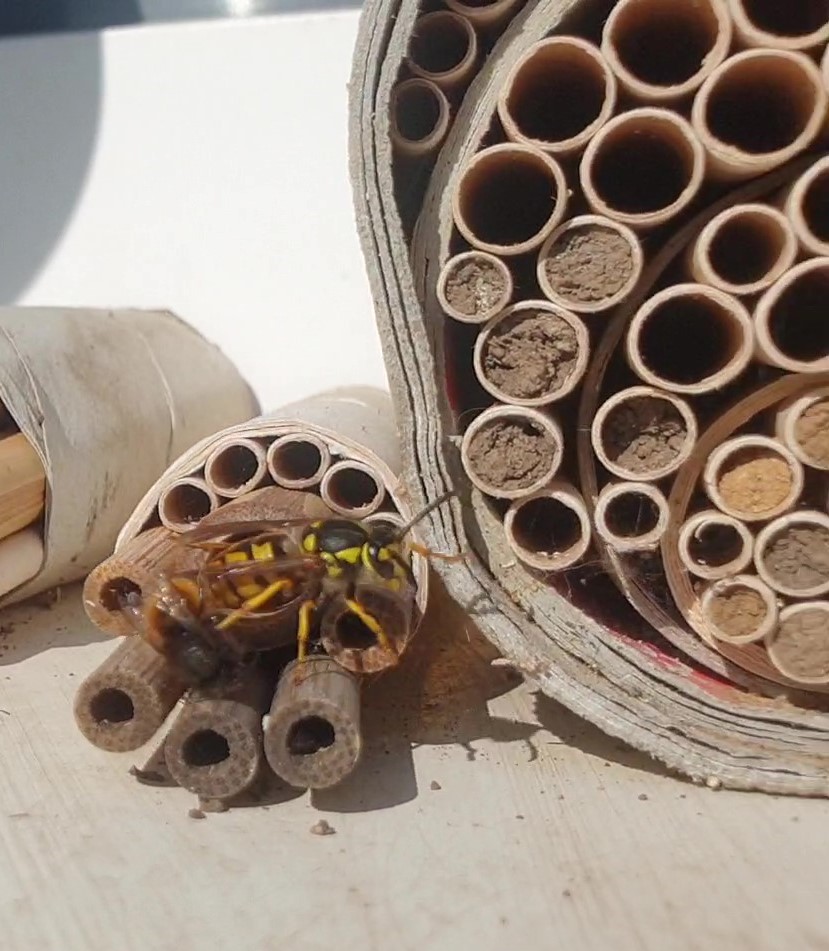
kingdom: Animalia
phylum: Arthropoda
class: Insecta
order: Hymenoptera
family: Vespidae
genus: Vespula
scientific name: Vespula germanica
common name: German wasp
